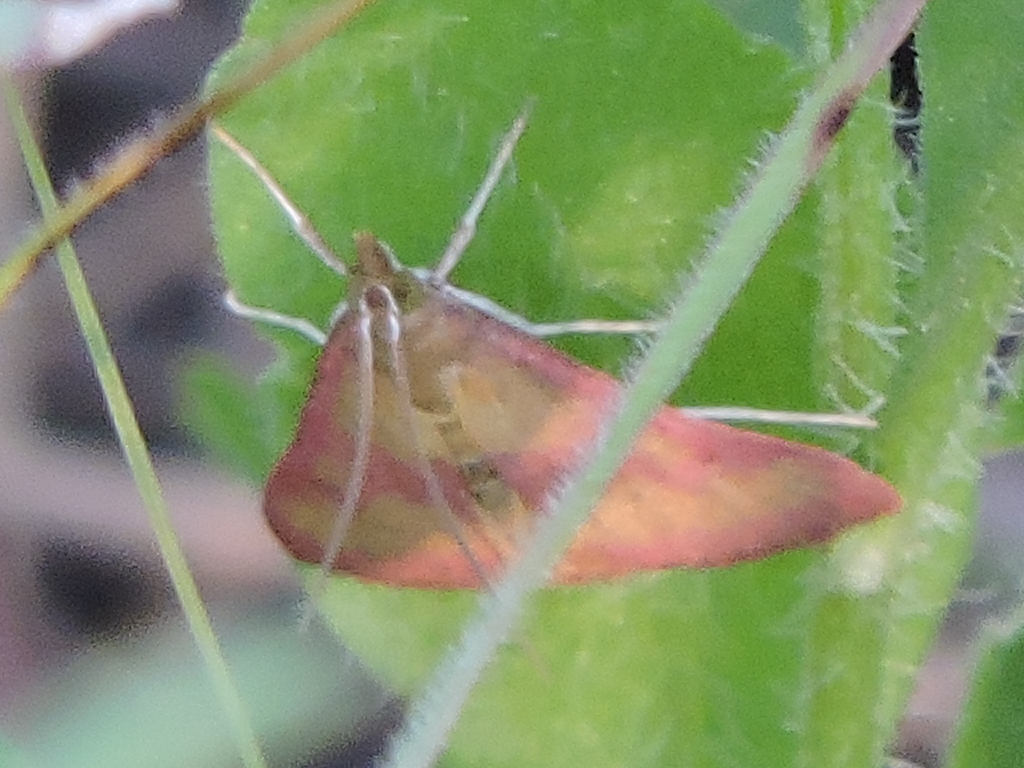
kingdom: Animalia
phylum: Arthropoda
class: Insecta
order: Lepidoptera
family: Crambidae
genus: Pyrausta
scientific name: Pyrausta laticlavia
